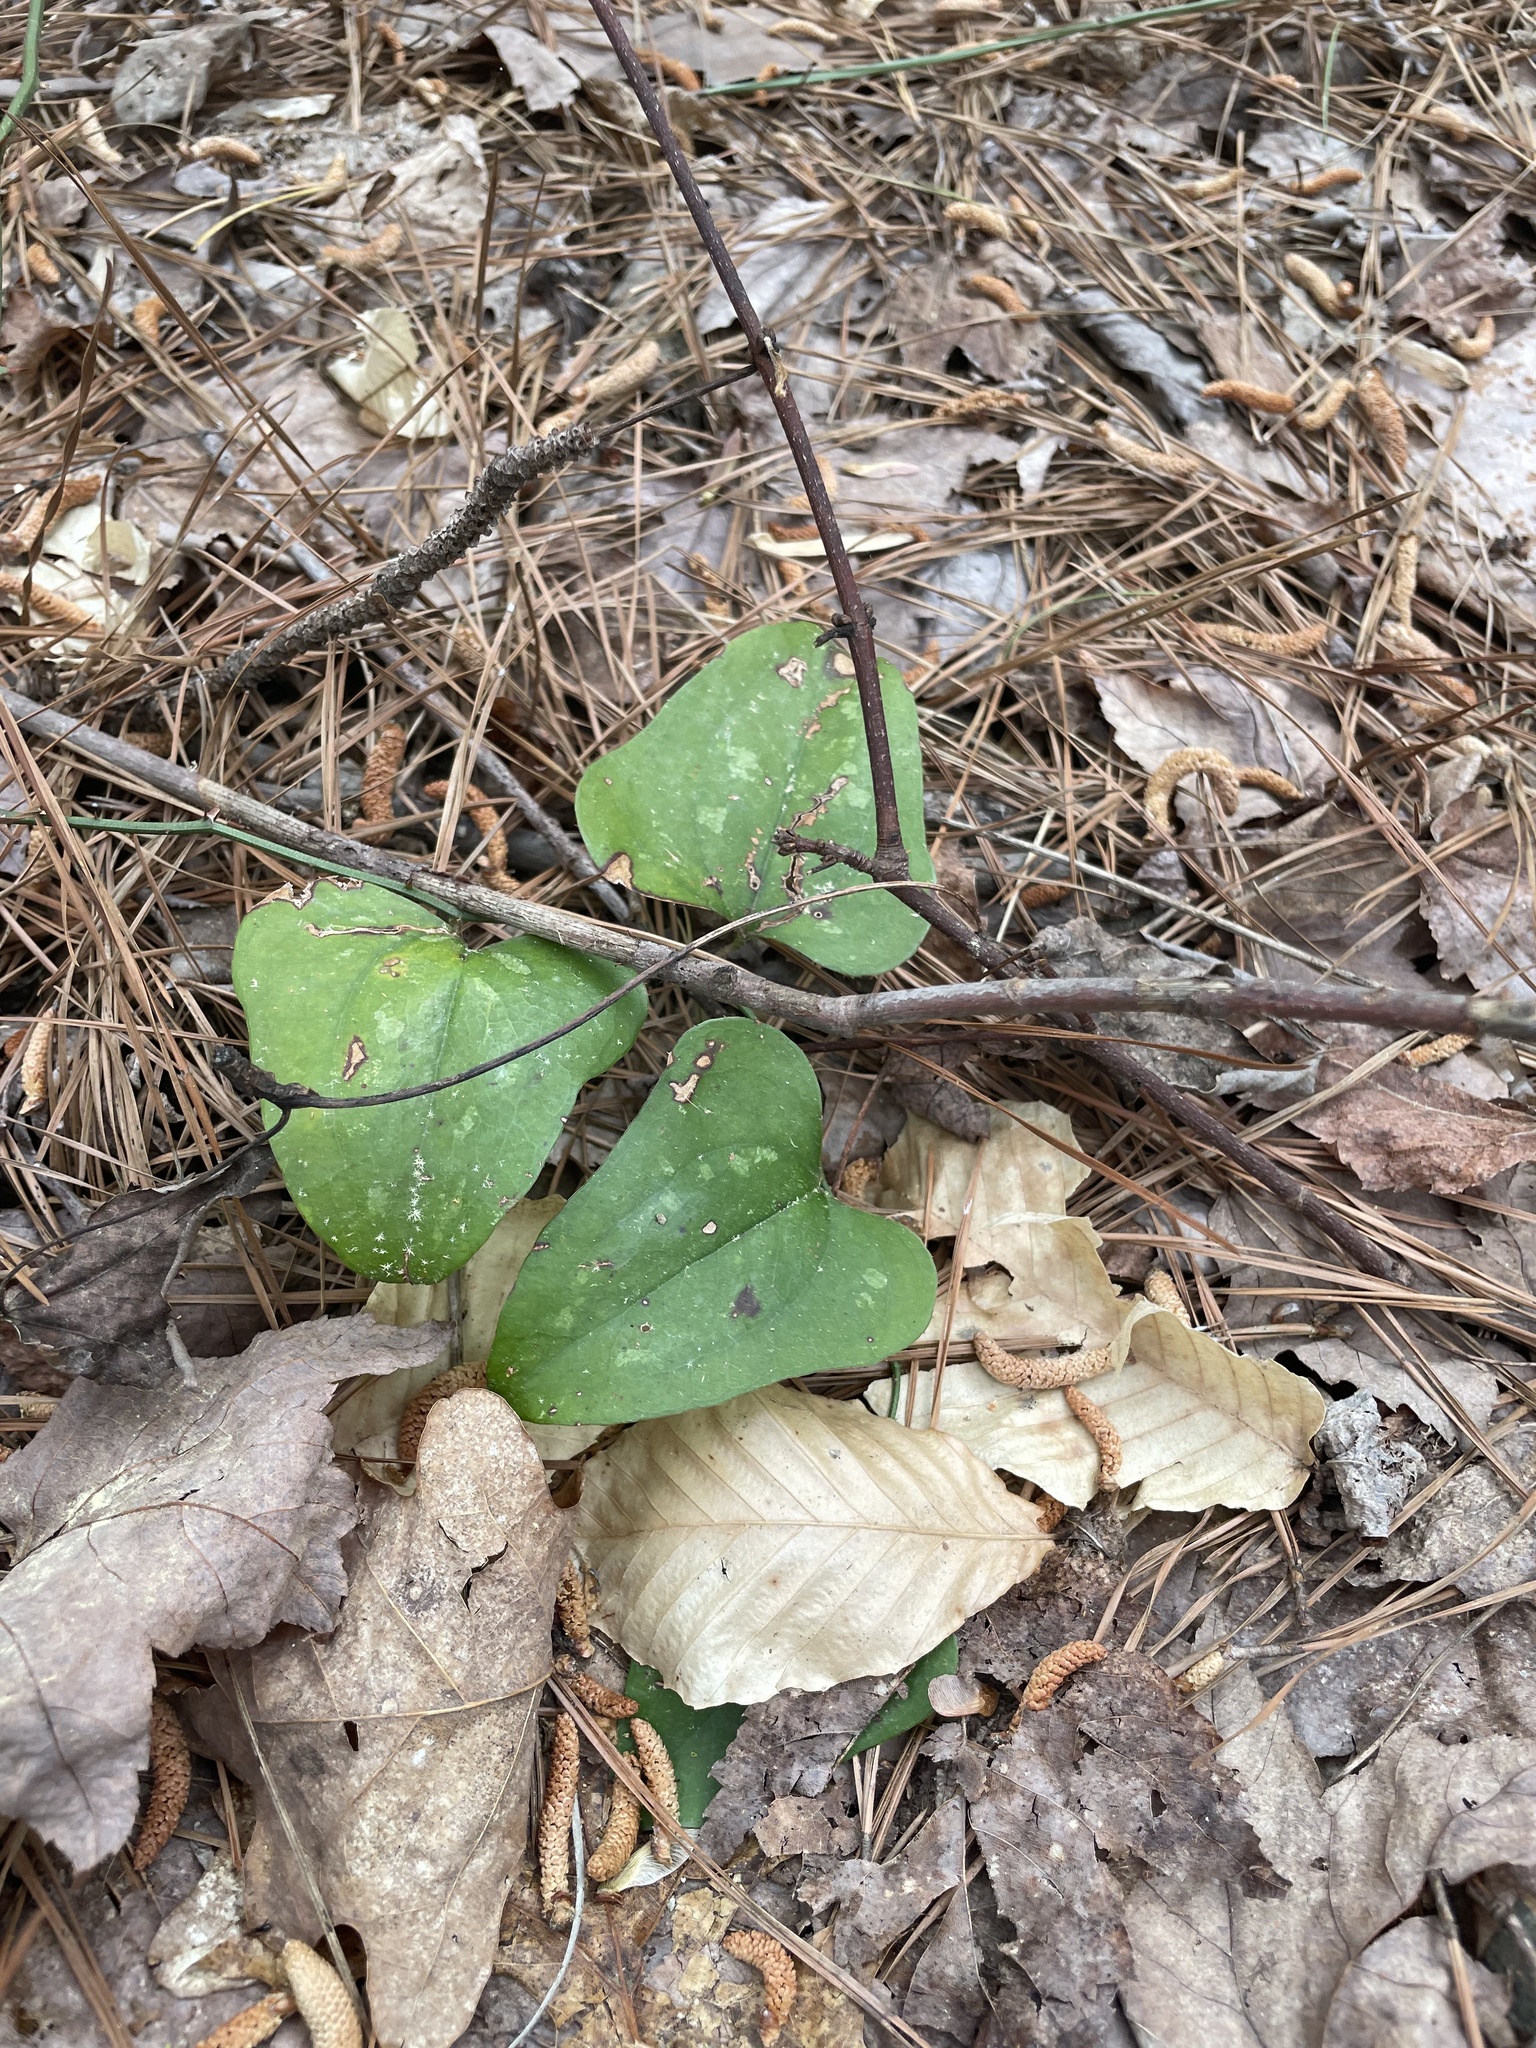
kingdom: Plantae
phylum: Tracheophyta
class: Liliopsida
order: Liliales
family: Smilacaceae
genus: Smilax
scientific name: Smilax bona-nox
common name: Catbrier
